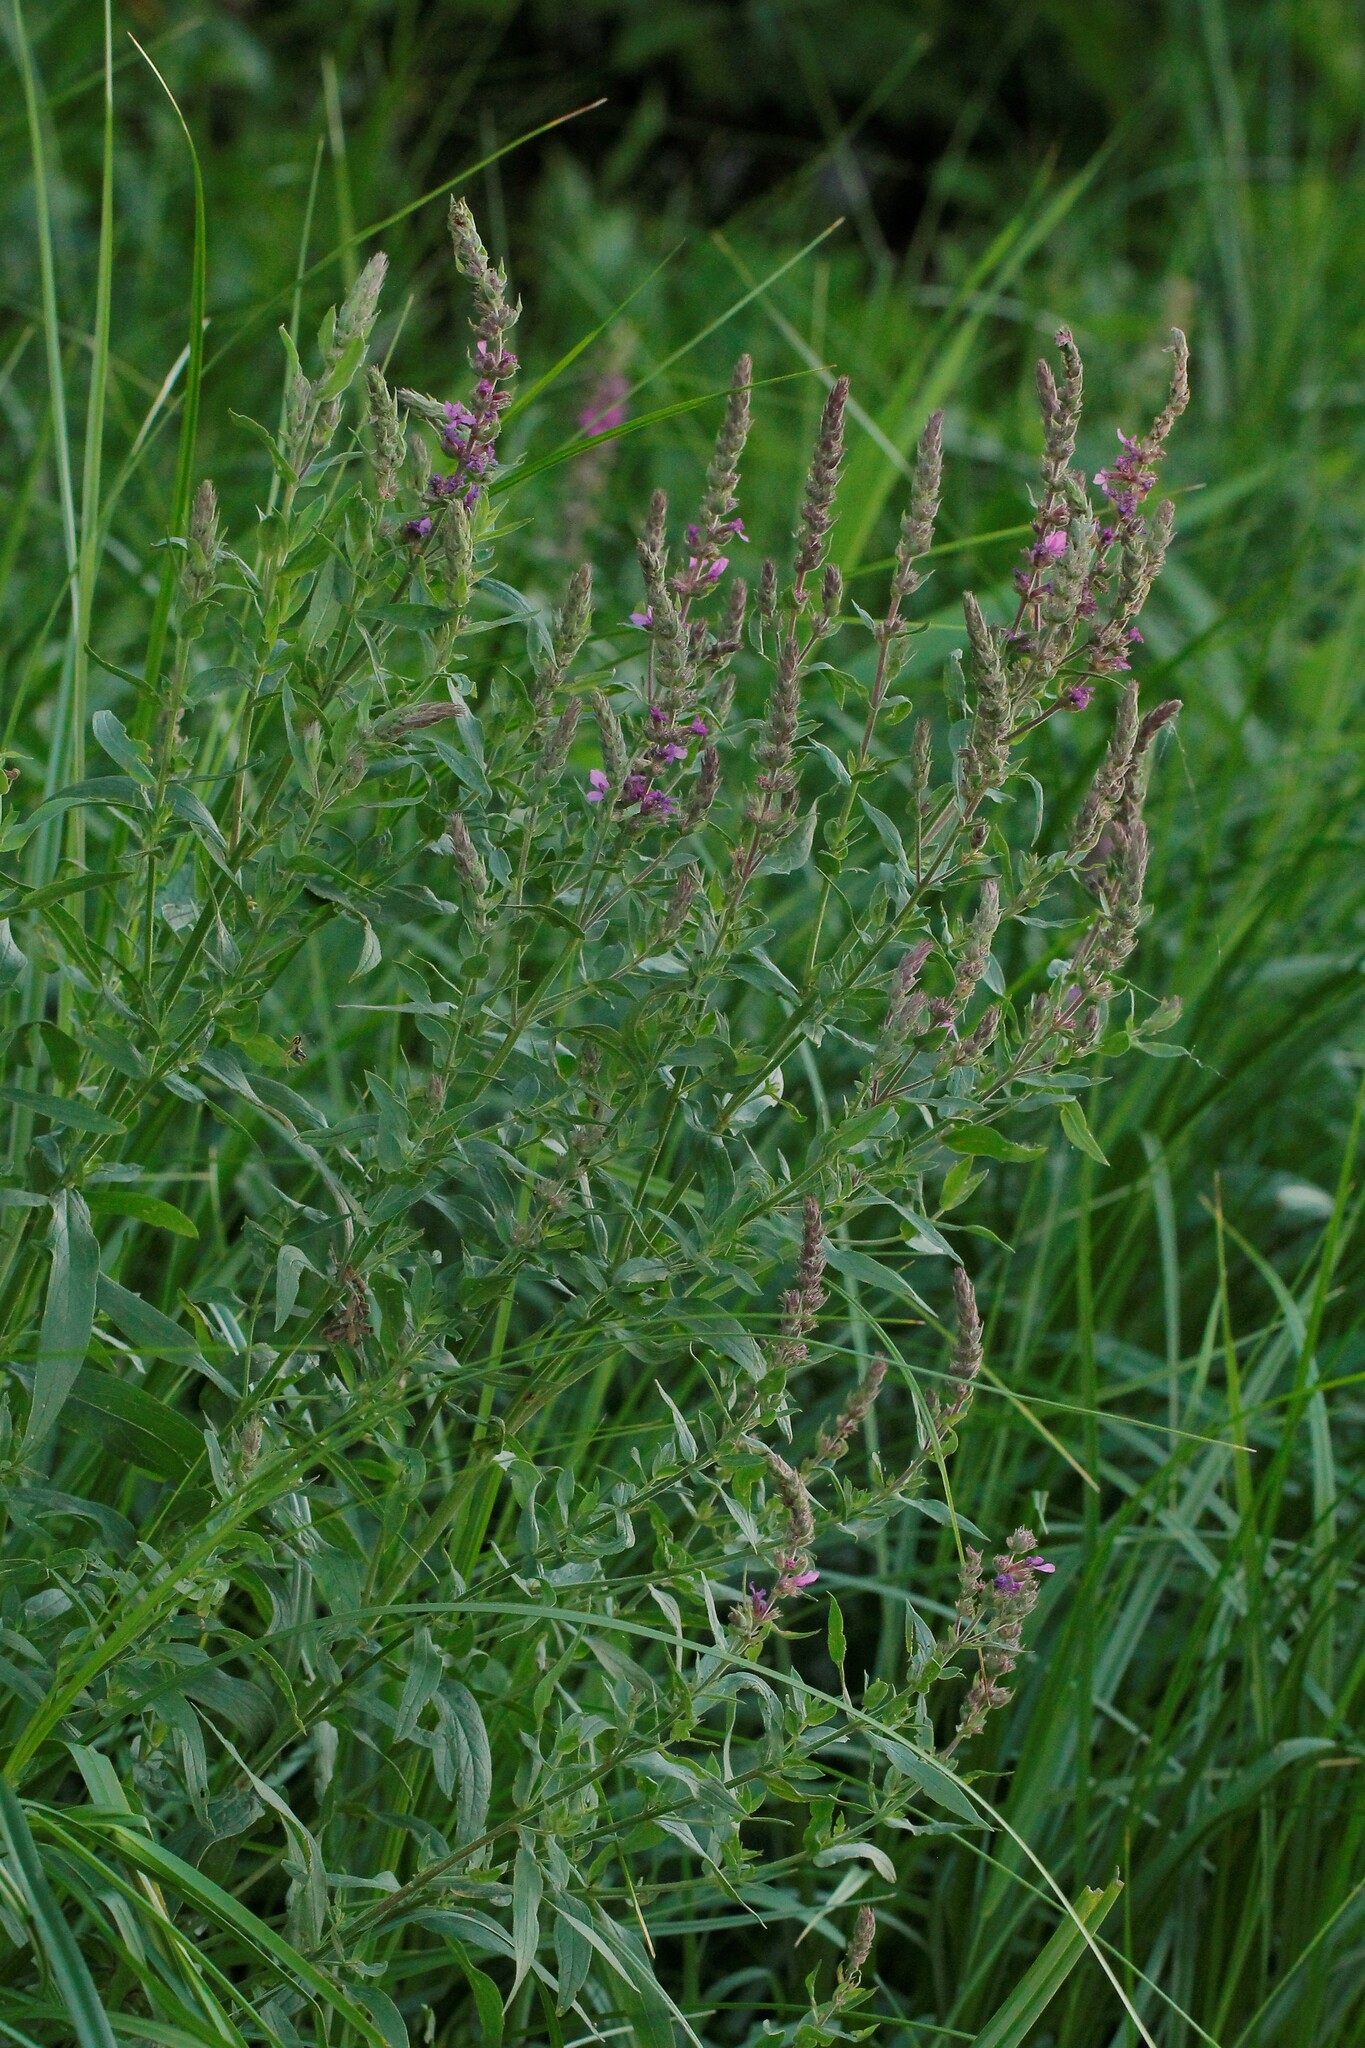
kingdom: Plantae
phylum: Tracheophyta
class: Magnoliopsida
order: Myrtales
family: Lythraceae
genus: Lythrum
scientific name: Lythrum salicaria
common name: Purple loosestrife
